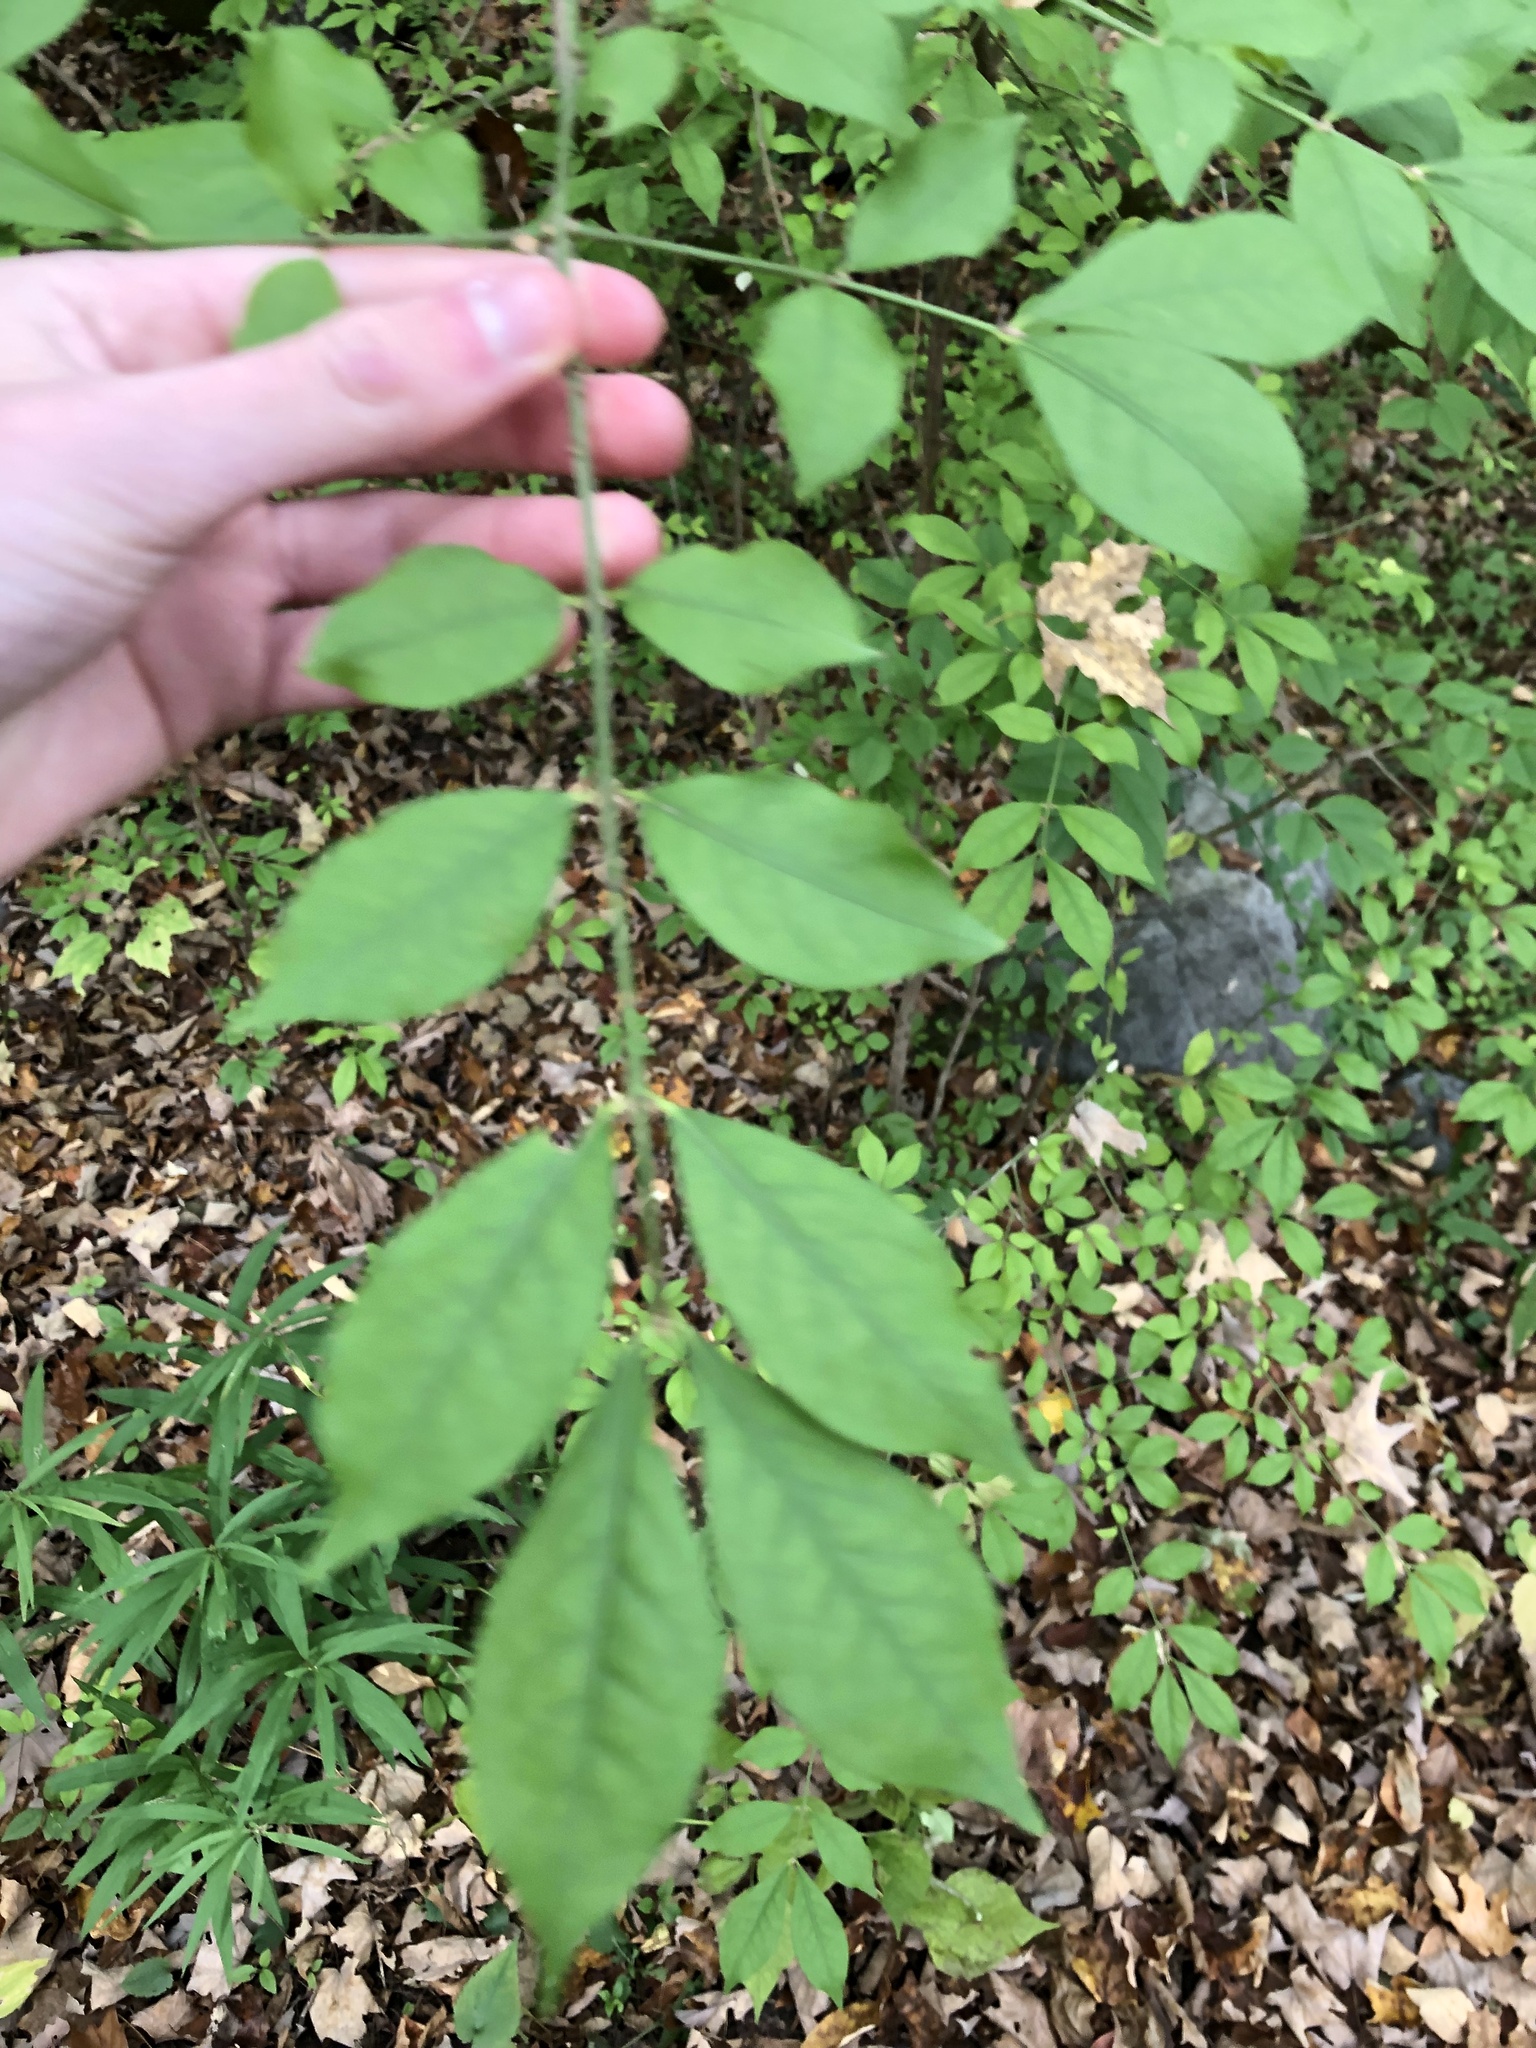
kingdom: Plantae
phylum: Tracheophyta
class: Magnoliopsida
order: Celastrales
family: Celastraceae
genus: Euonymus
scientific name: Euonymus alatus
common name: Winged euonymus
